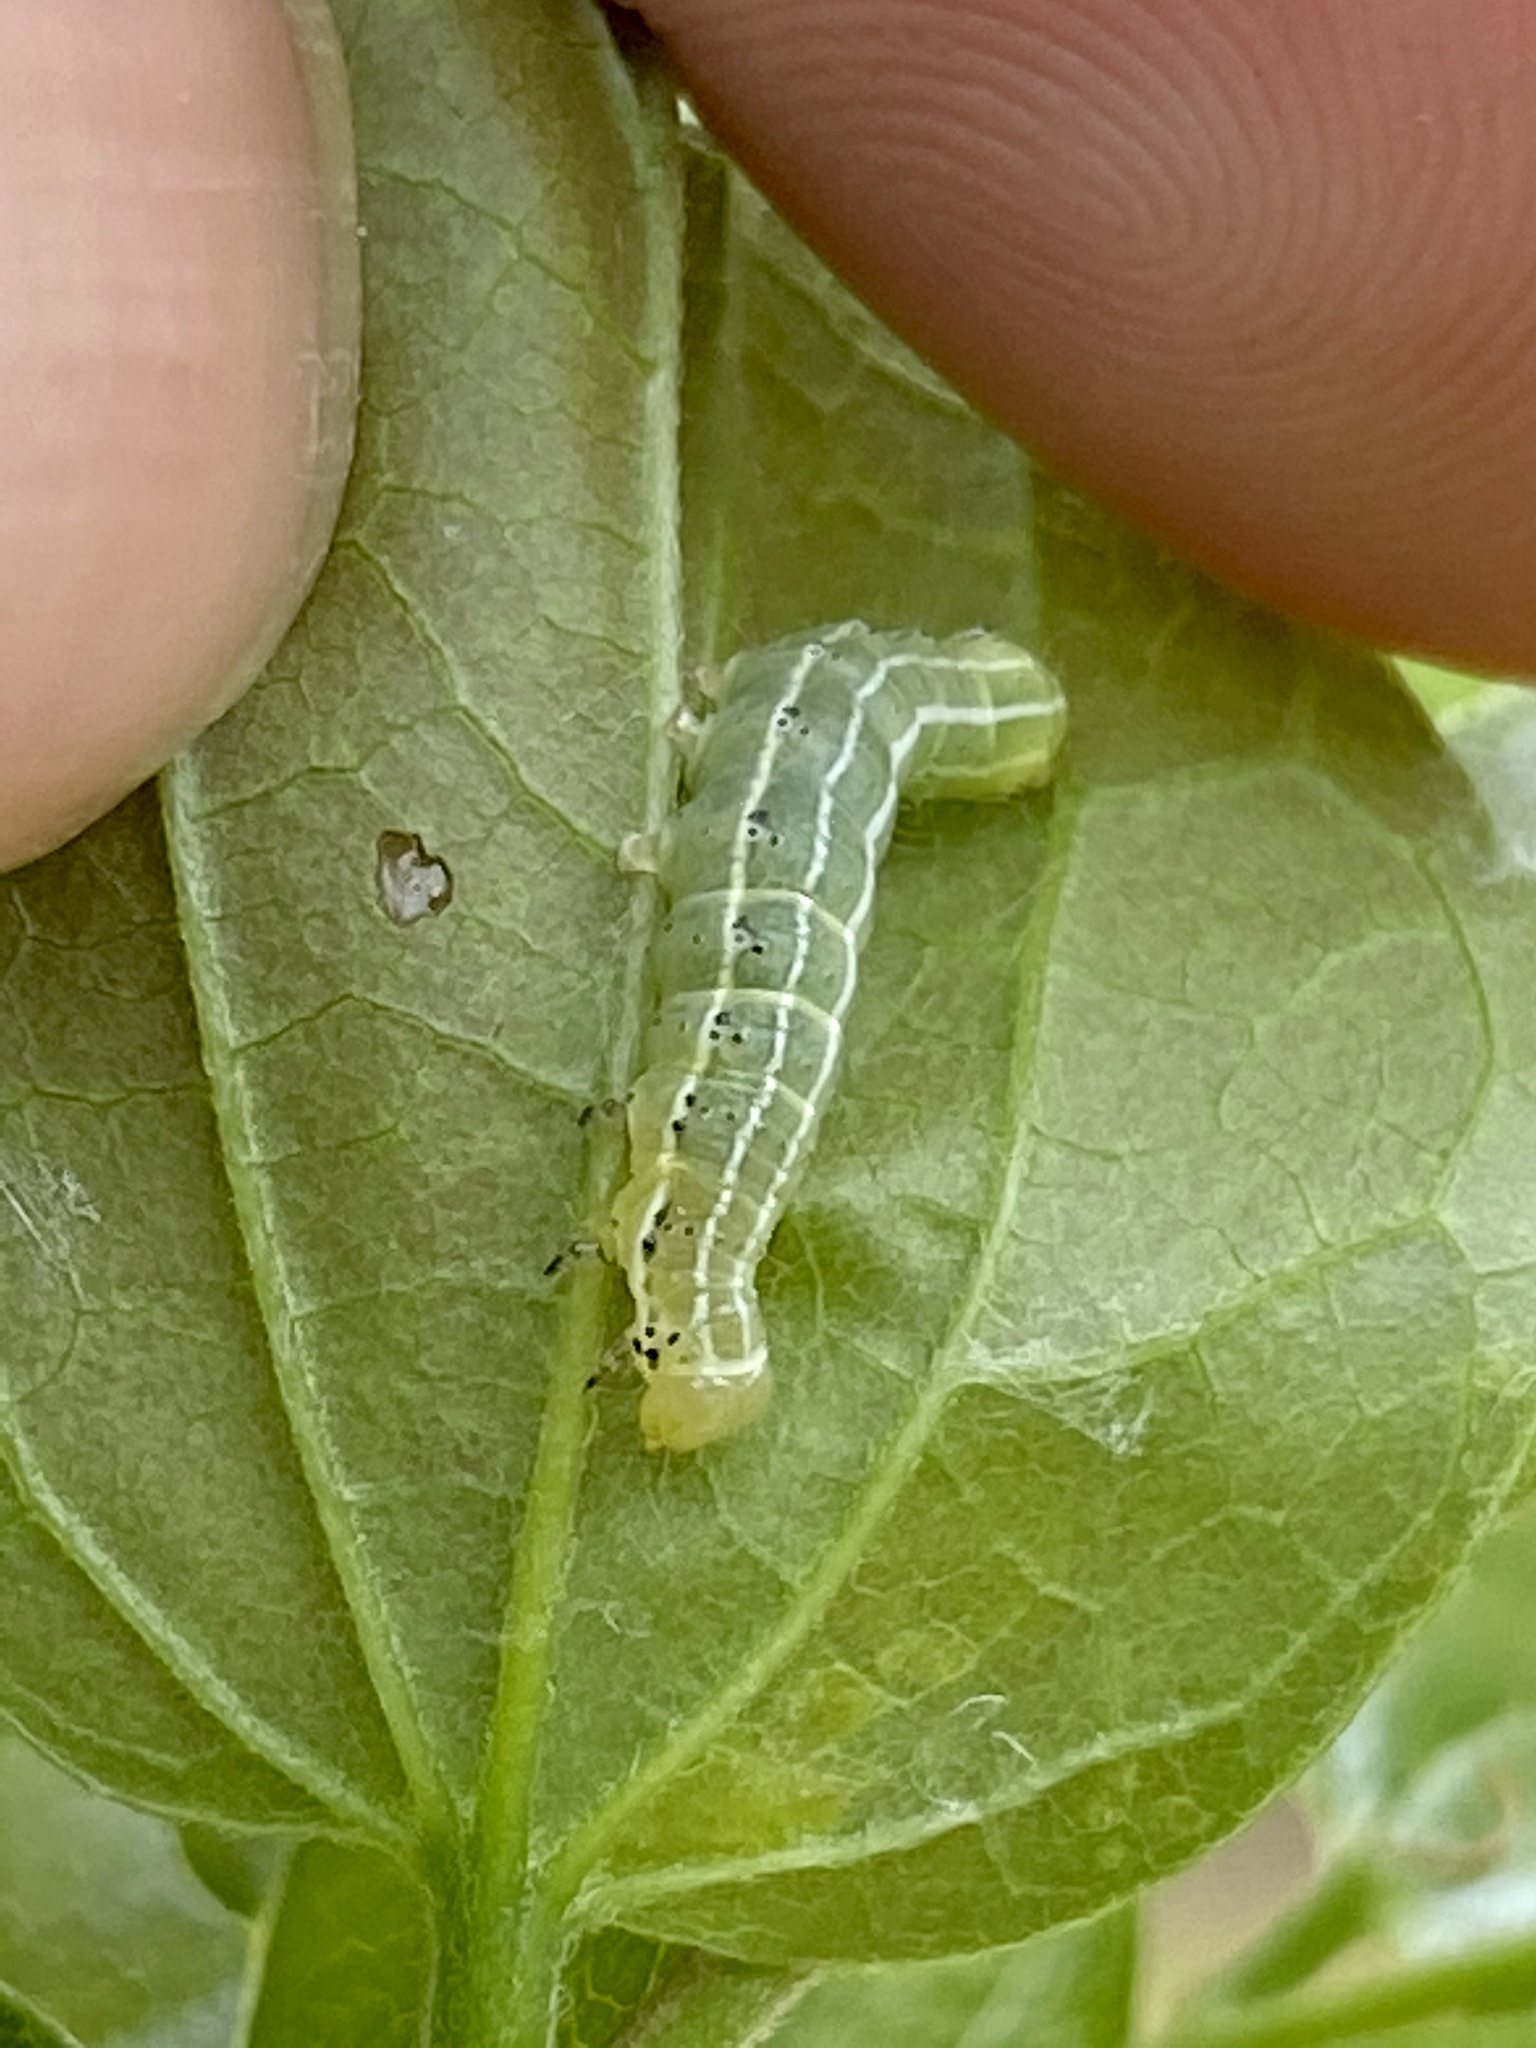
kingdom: Animalia
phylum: Arthropoda
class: Insecta
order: Lepidoptera
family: Noctuidae
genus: Cosmia
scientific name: Cosmia affinis
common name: Lesser-spotted pinion
